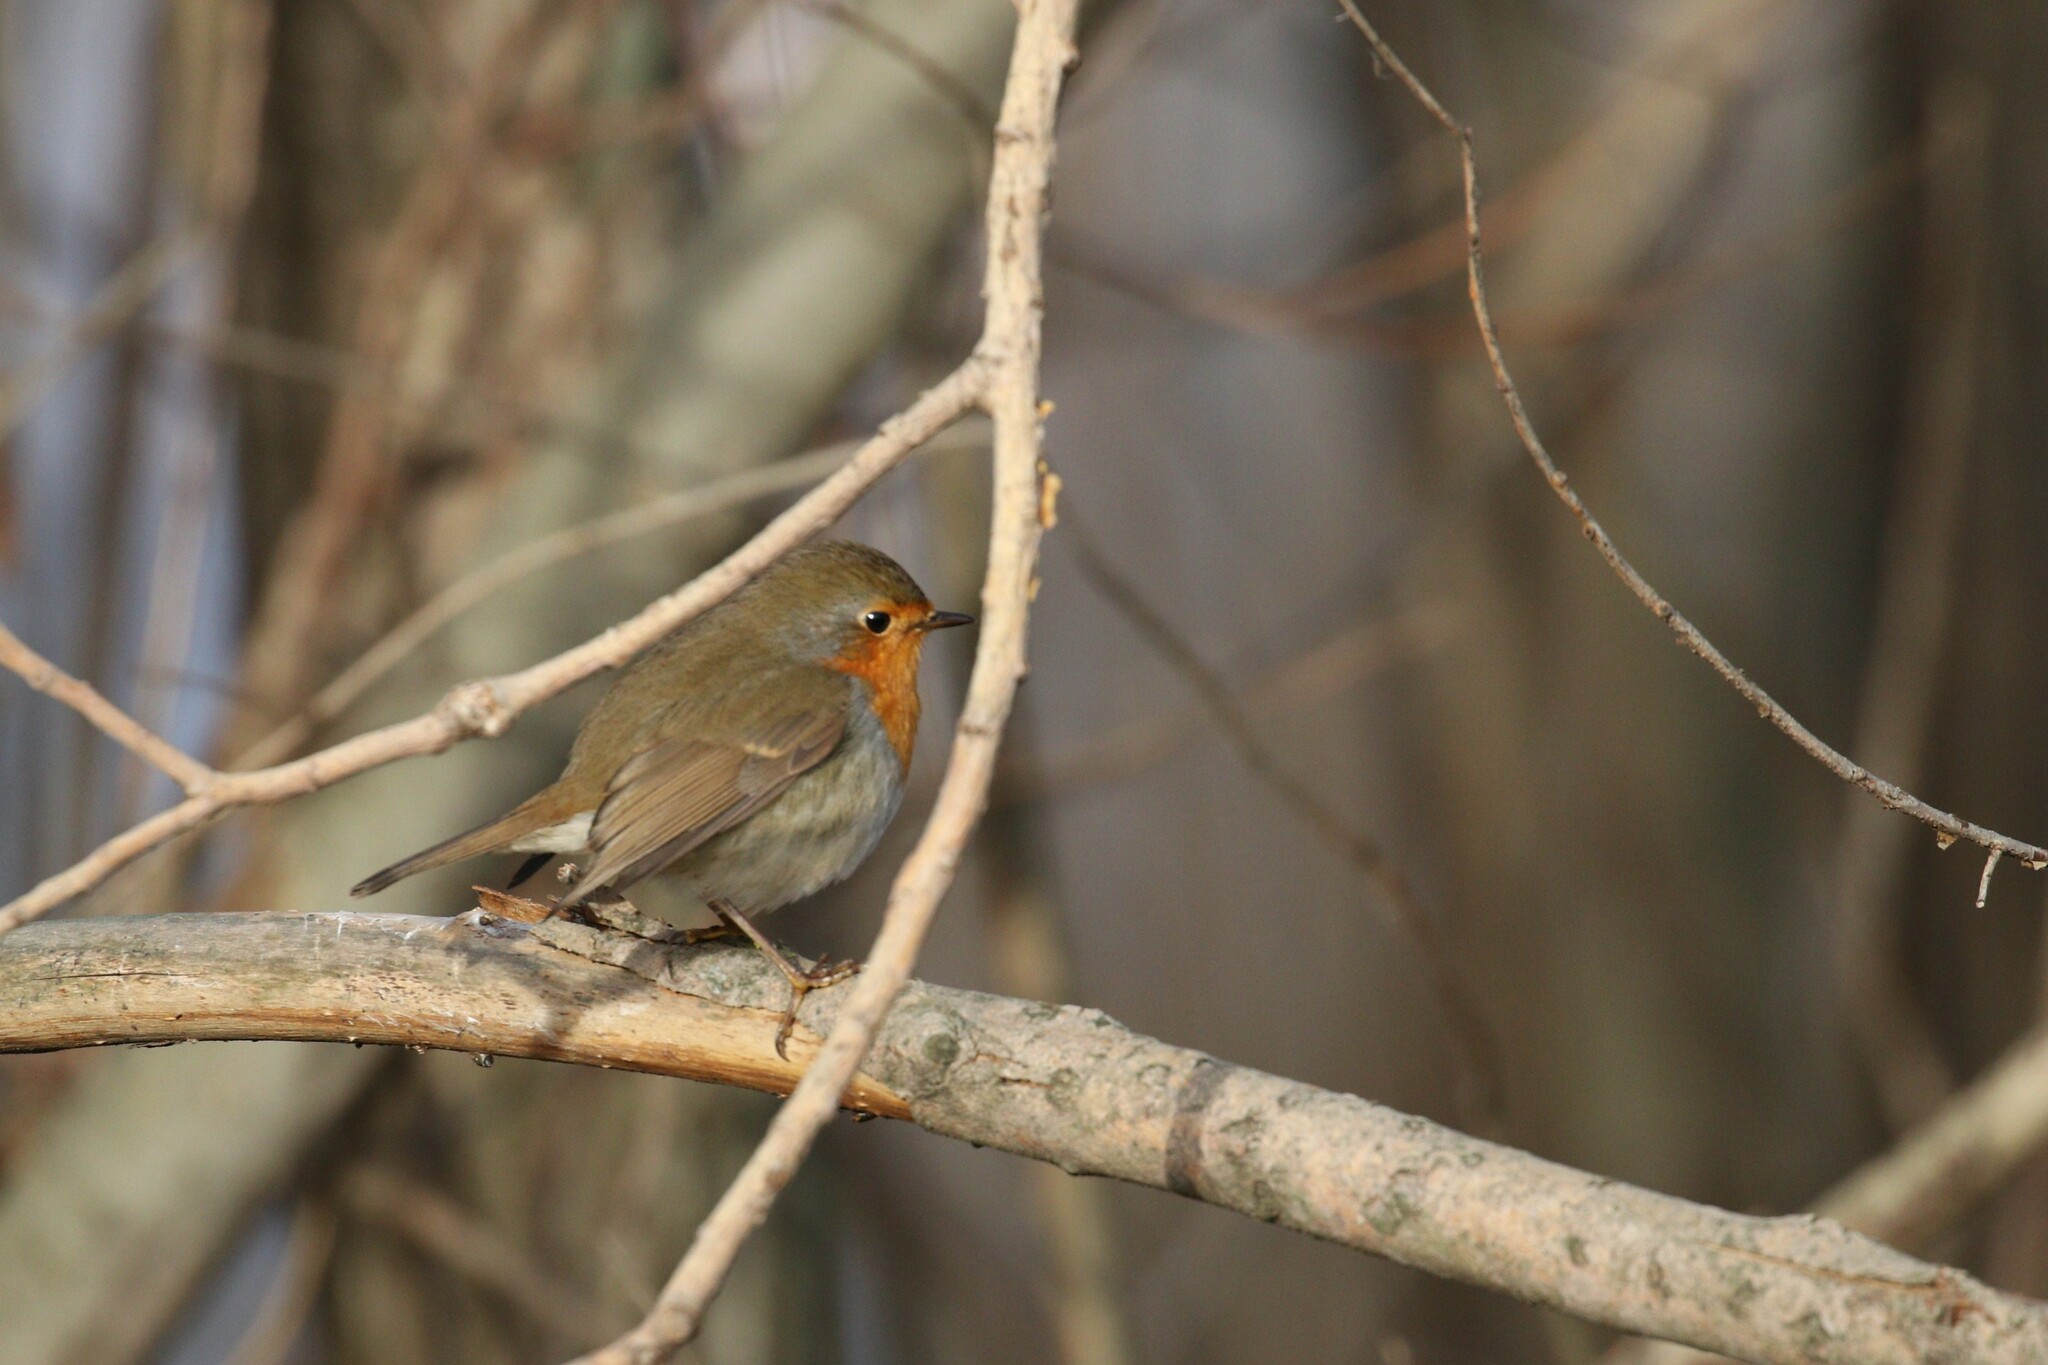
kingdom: Animalia
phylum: Chordata
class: Aves
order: Passeriformes
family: Muscicapidae
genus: Erithacus
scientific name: Erithacus rubecula
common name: European robin
